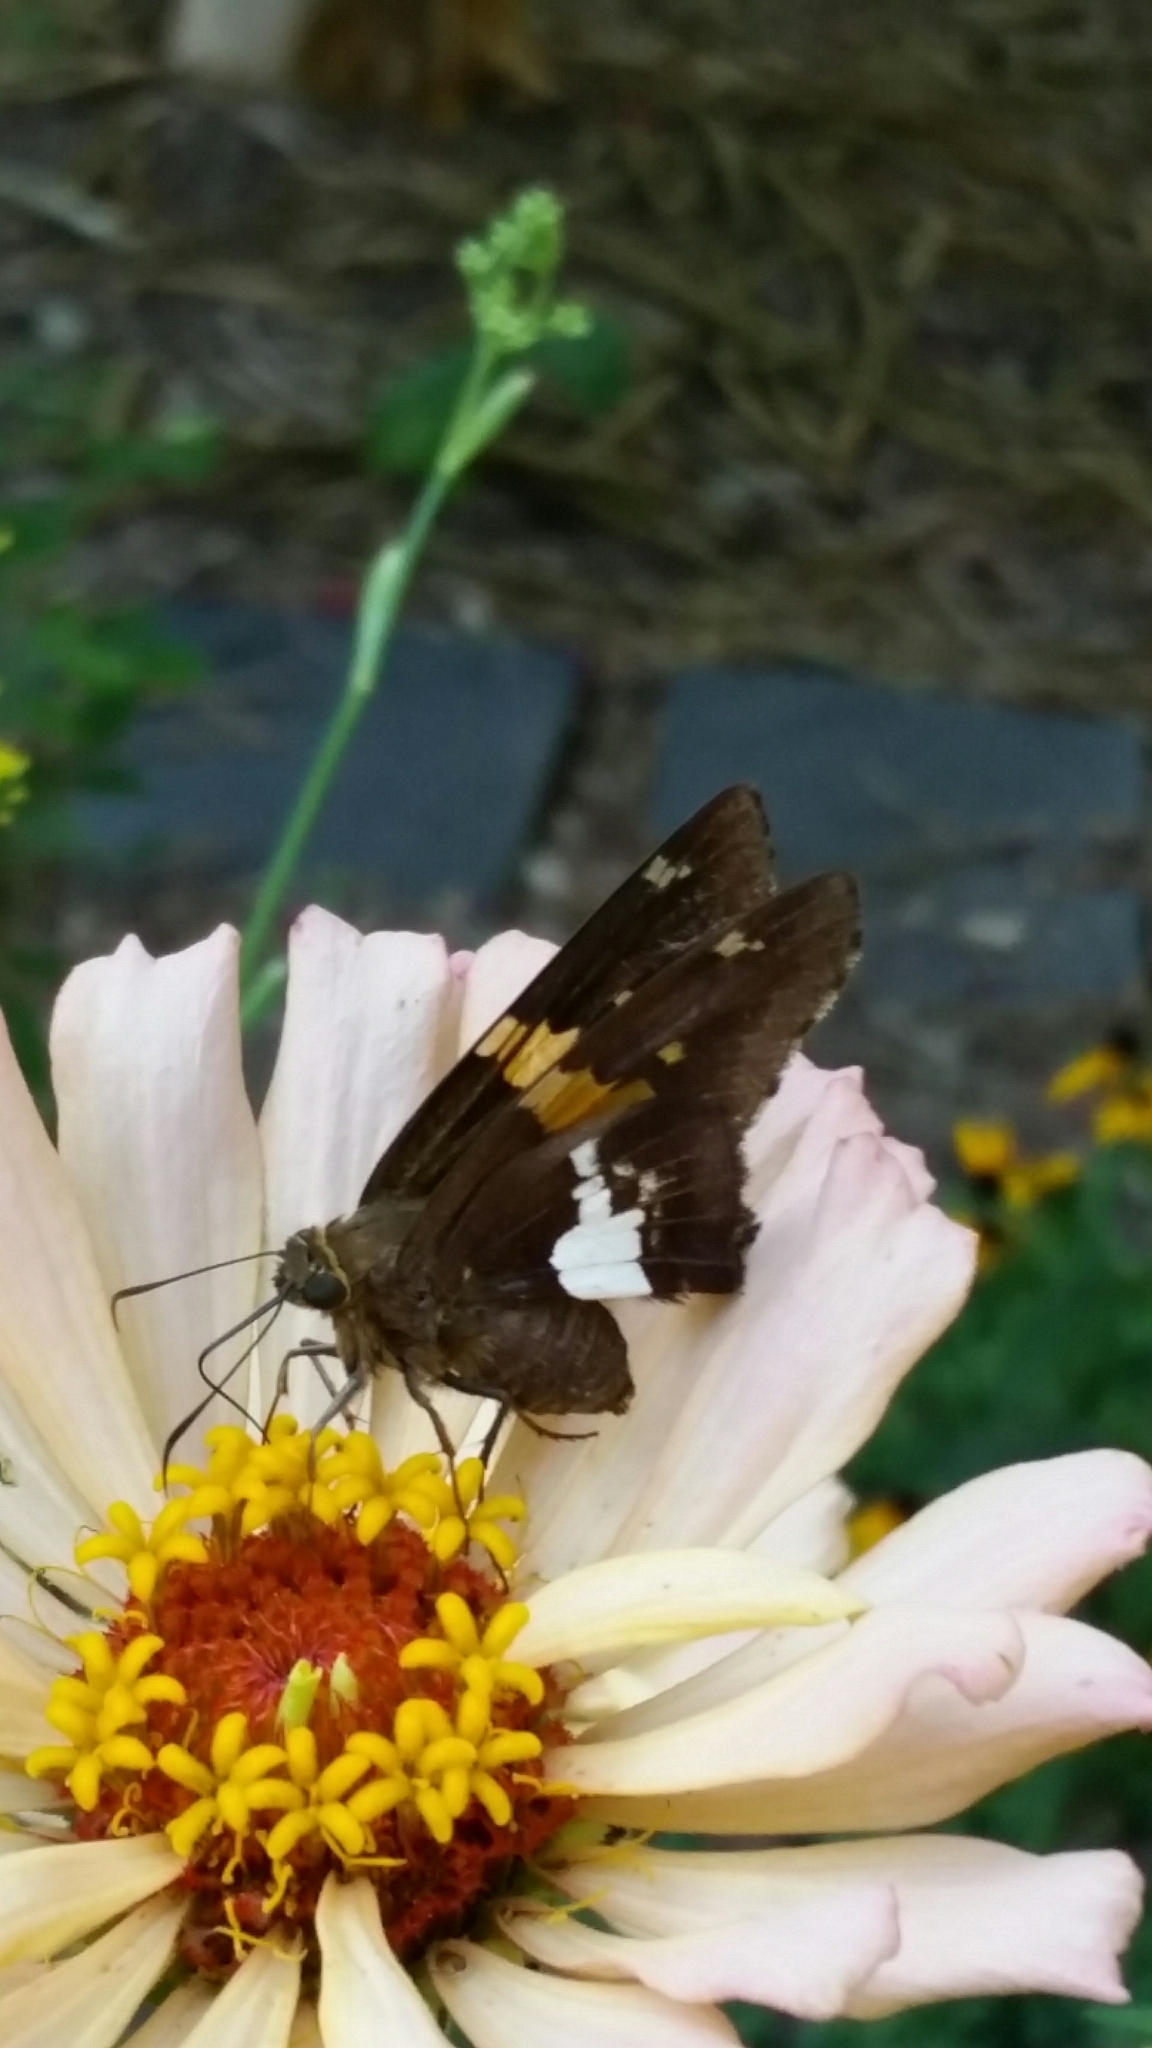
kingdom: Animalia
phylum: Arthropoda
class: Insecta
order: Lepidoptera
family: Hesperiidae
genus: Epargyreus
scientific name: Epargyreus clarus
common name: Silver-spotted skipper
